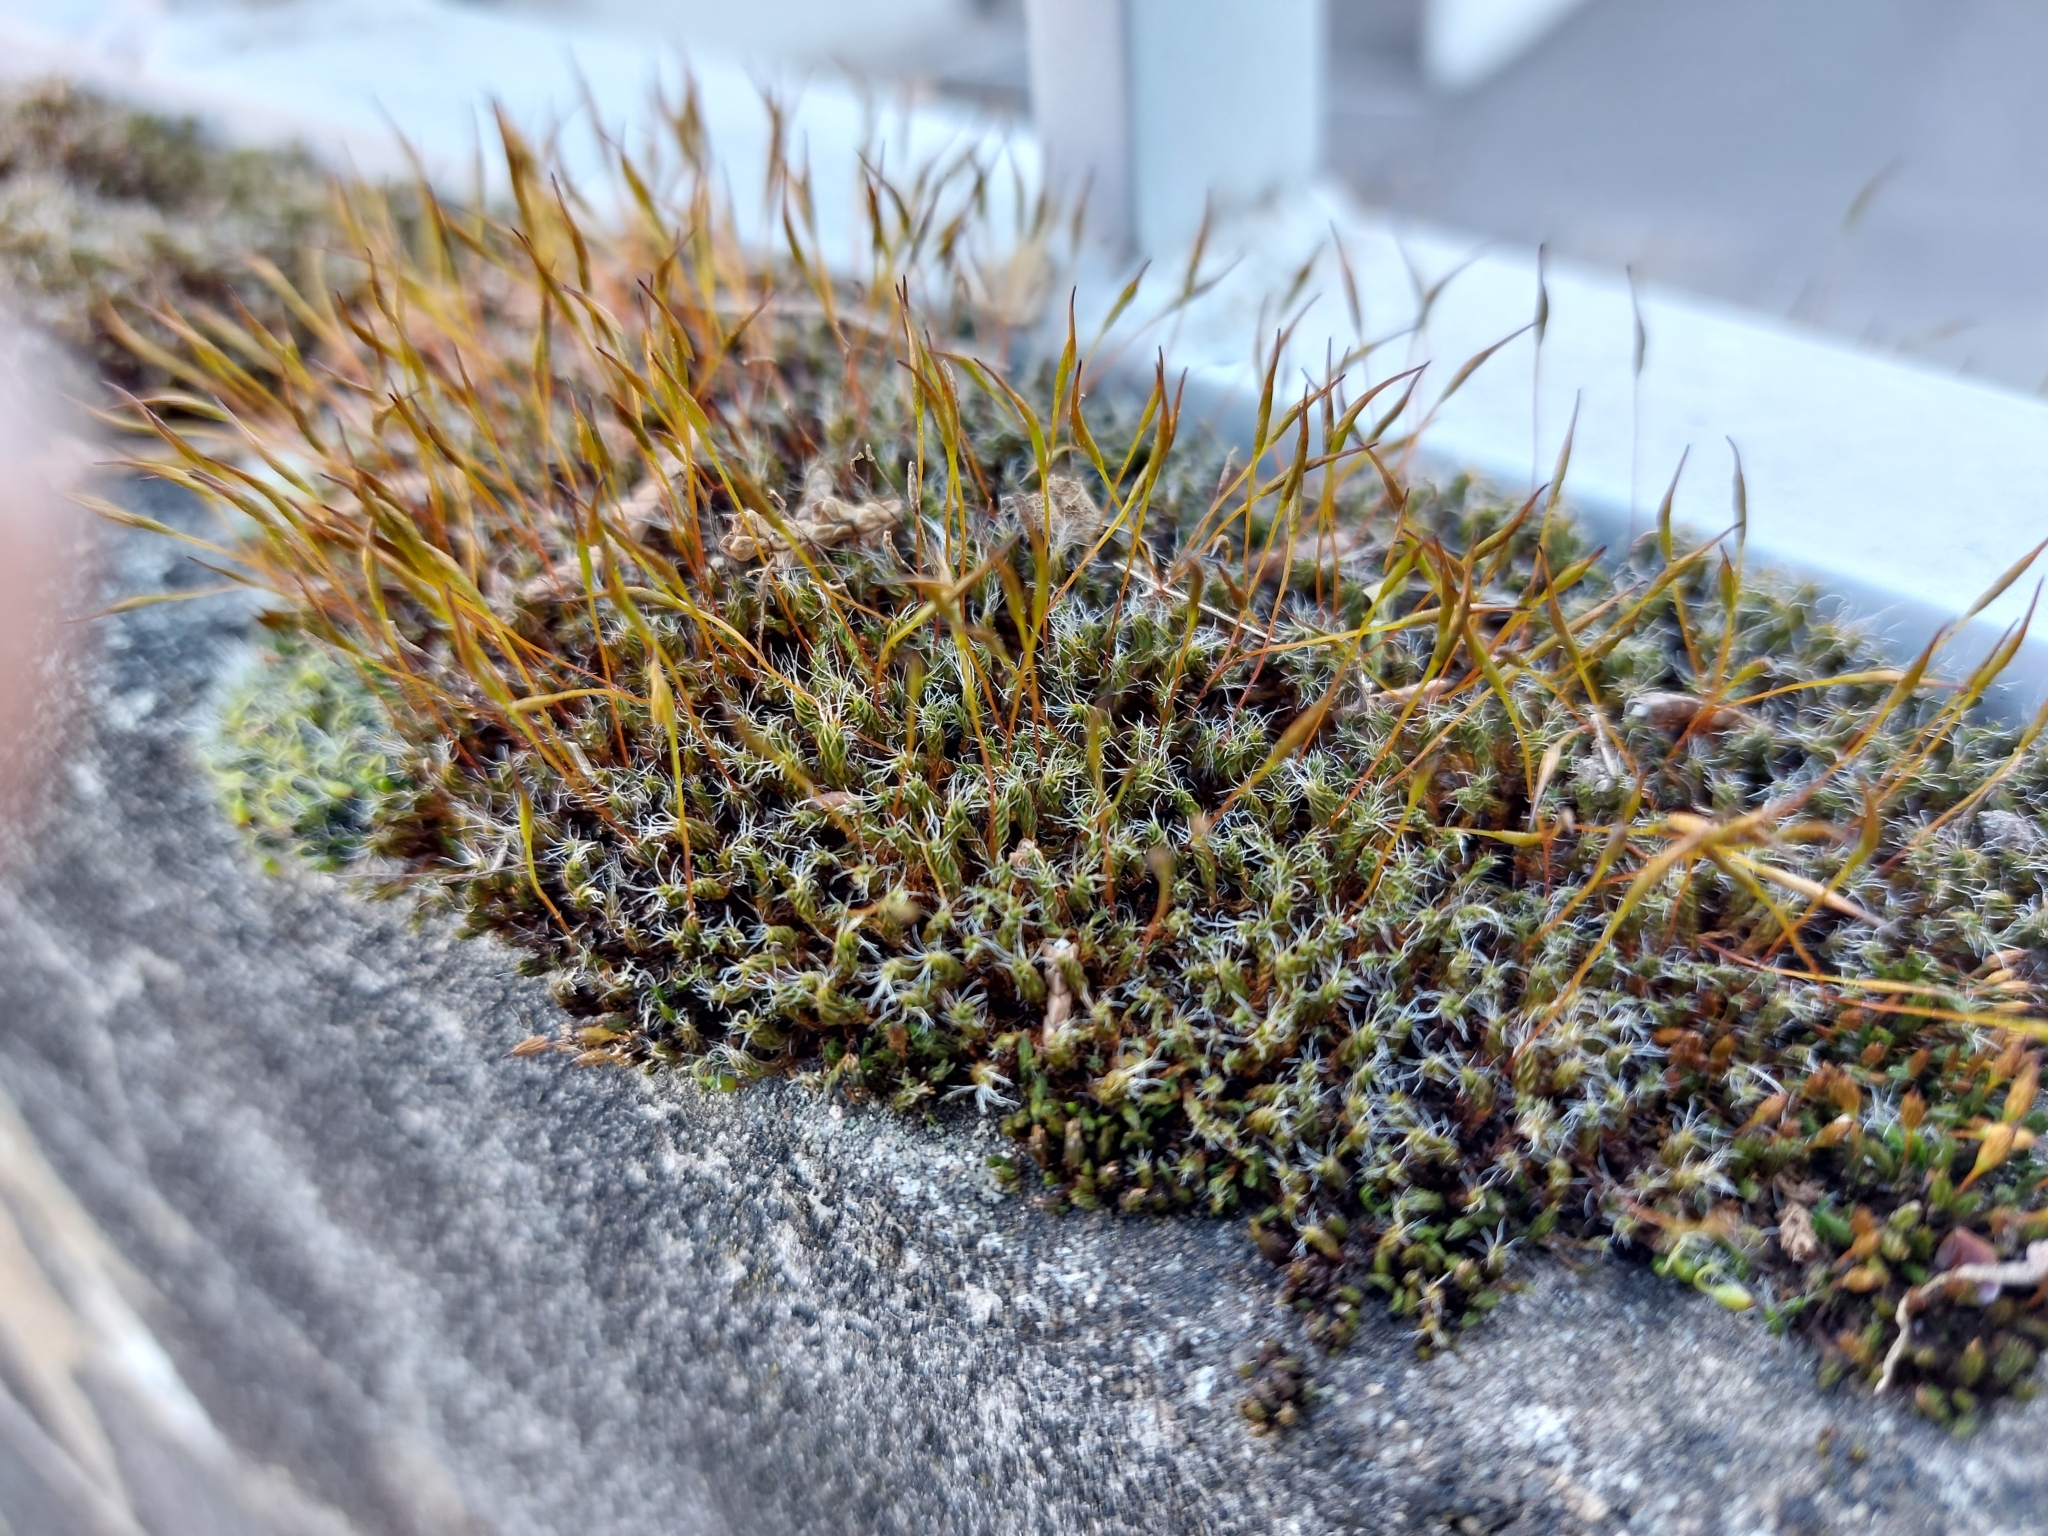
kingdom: Plantae
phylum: Bryophyta
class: Bryopsida
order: Pottiales
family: Pottiaceae
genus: Tortula
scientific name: Tortula muralis
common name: Wall screw-moss
